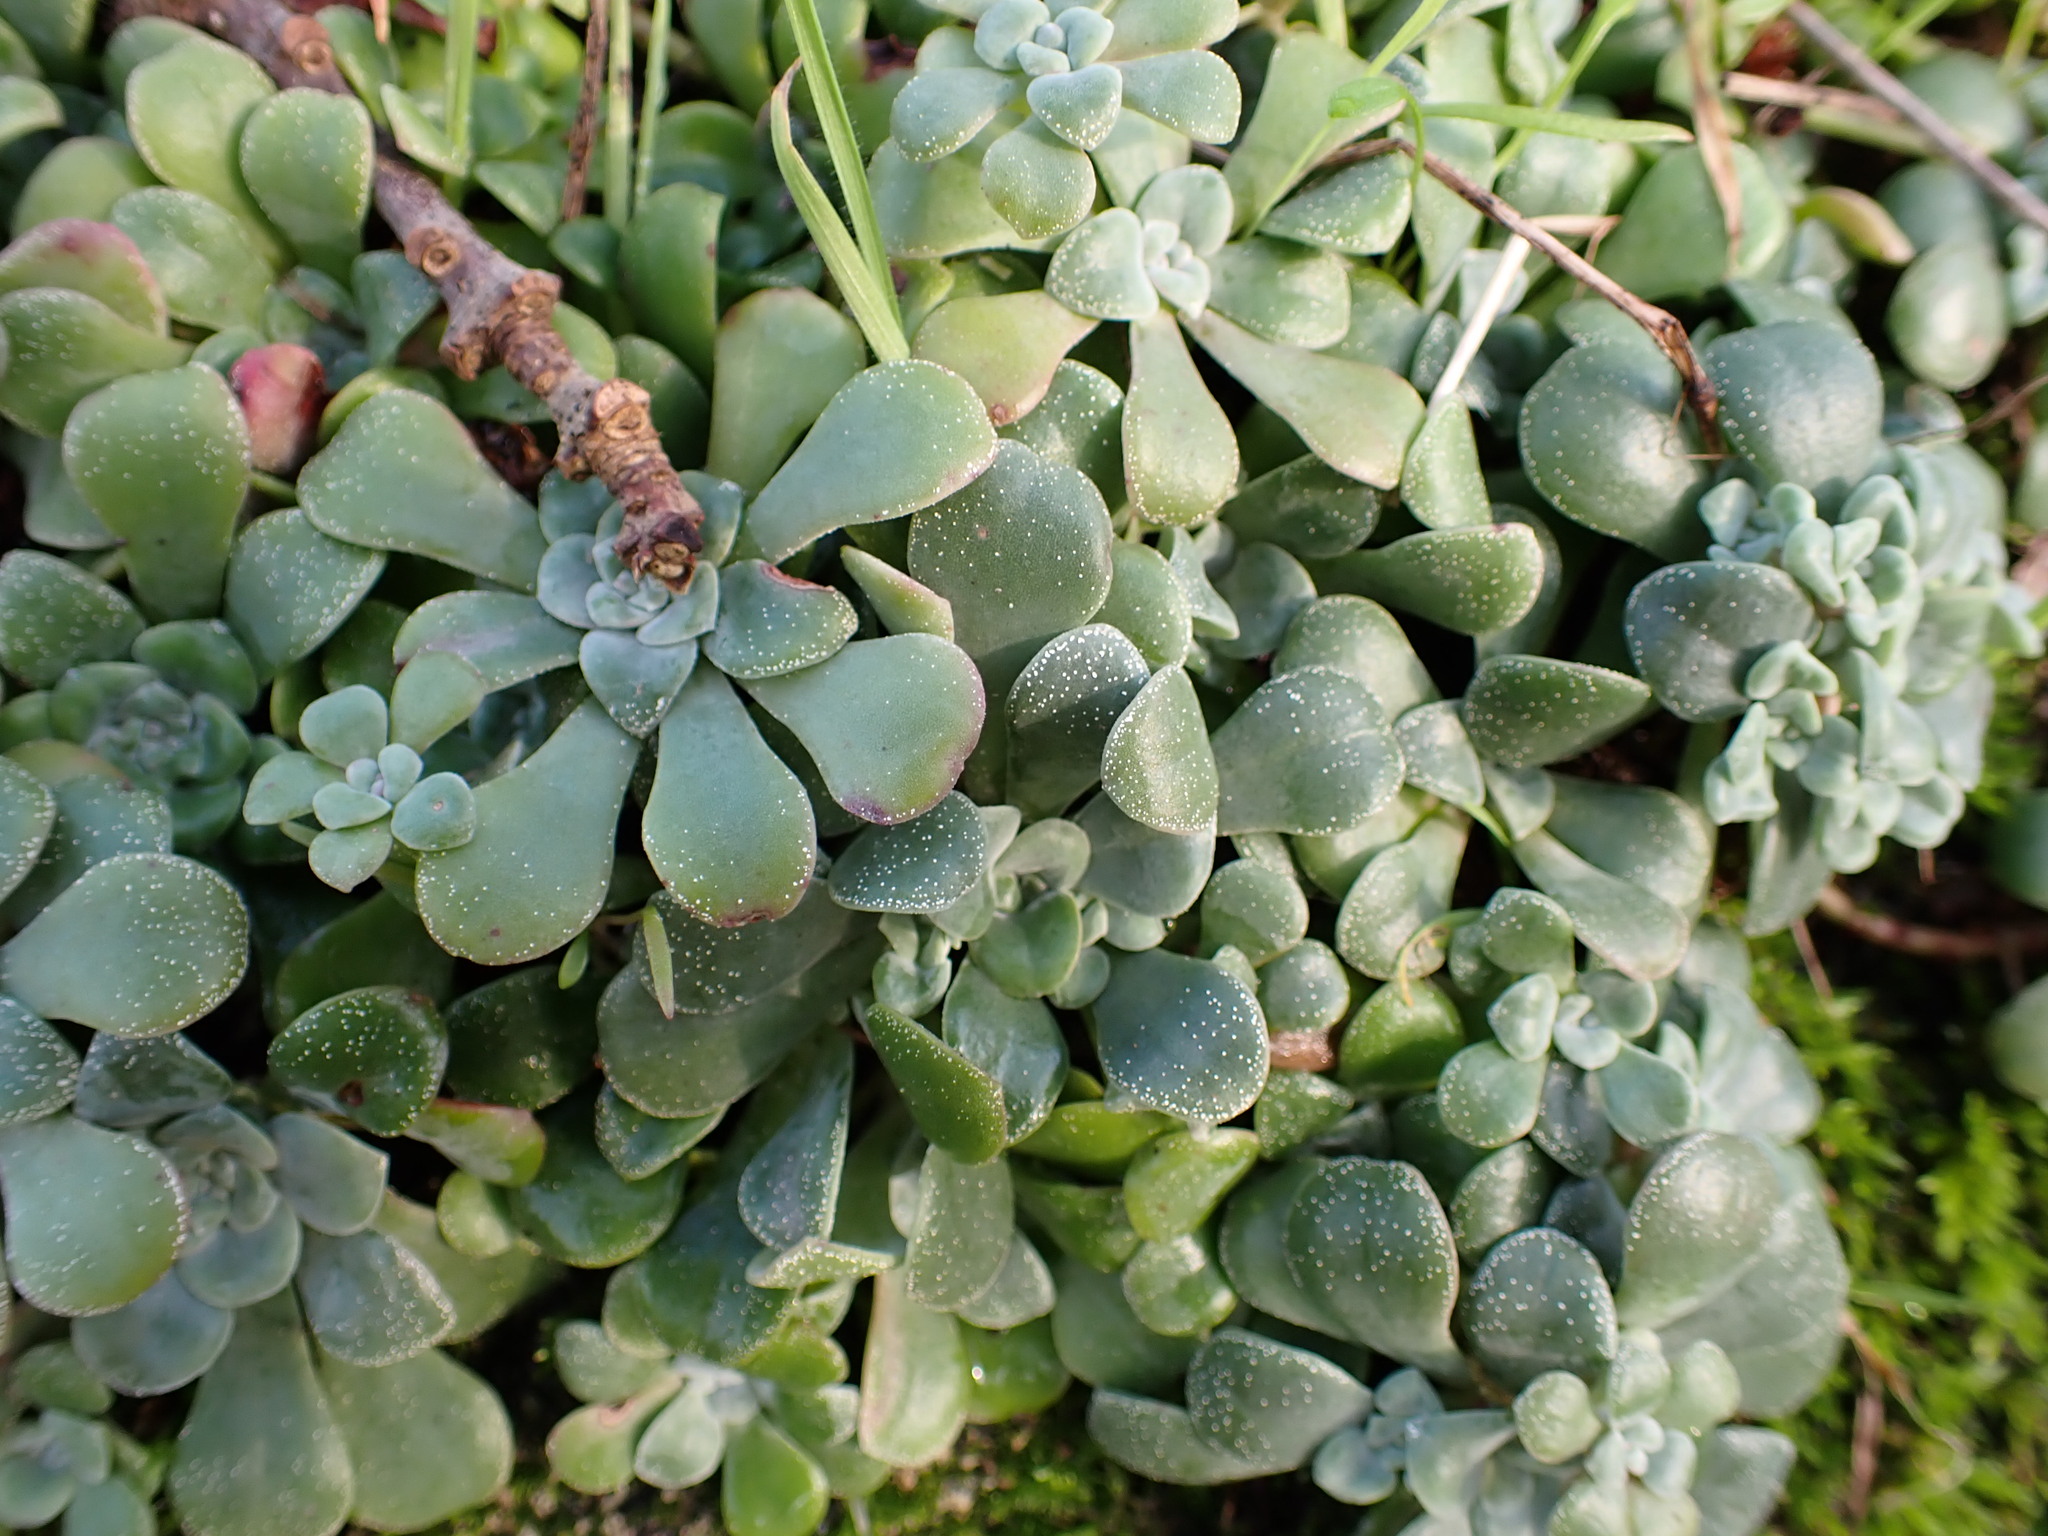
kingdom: Plantae
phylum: Tracheophyta
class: Magnoliopsida
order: Saxifragales
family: Crassulaceae
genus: Sedum
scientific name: Sedum spathulifolium
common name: Colorado stonecrop
